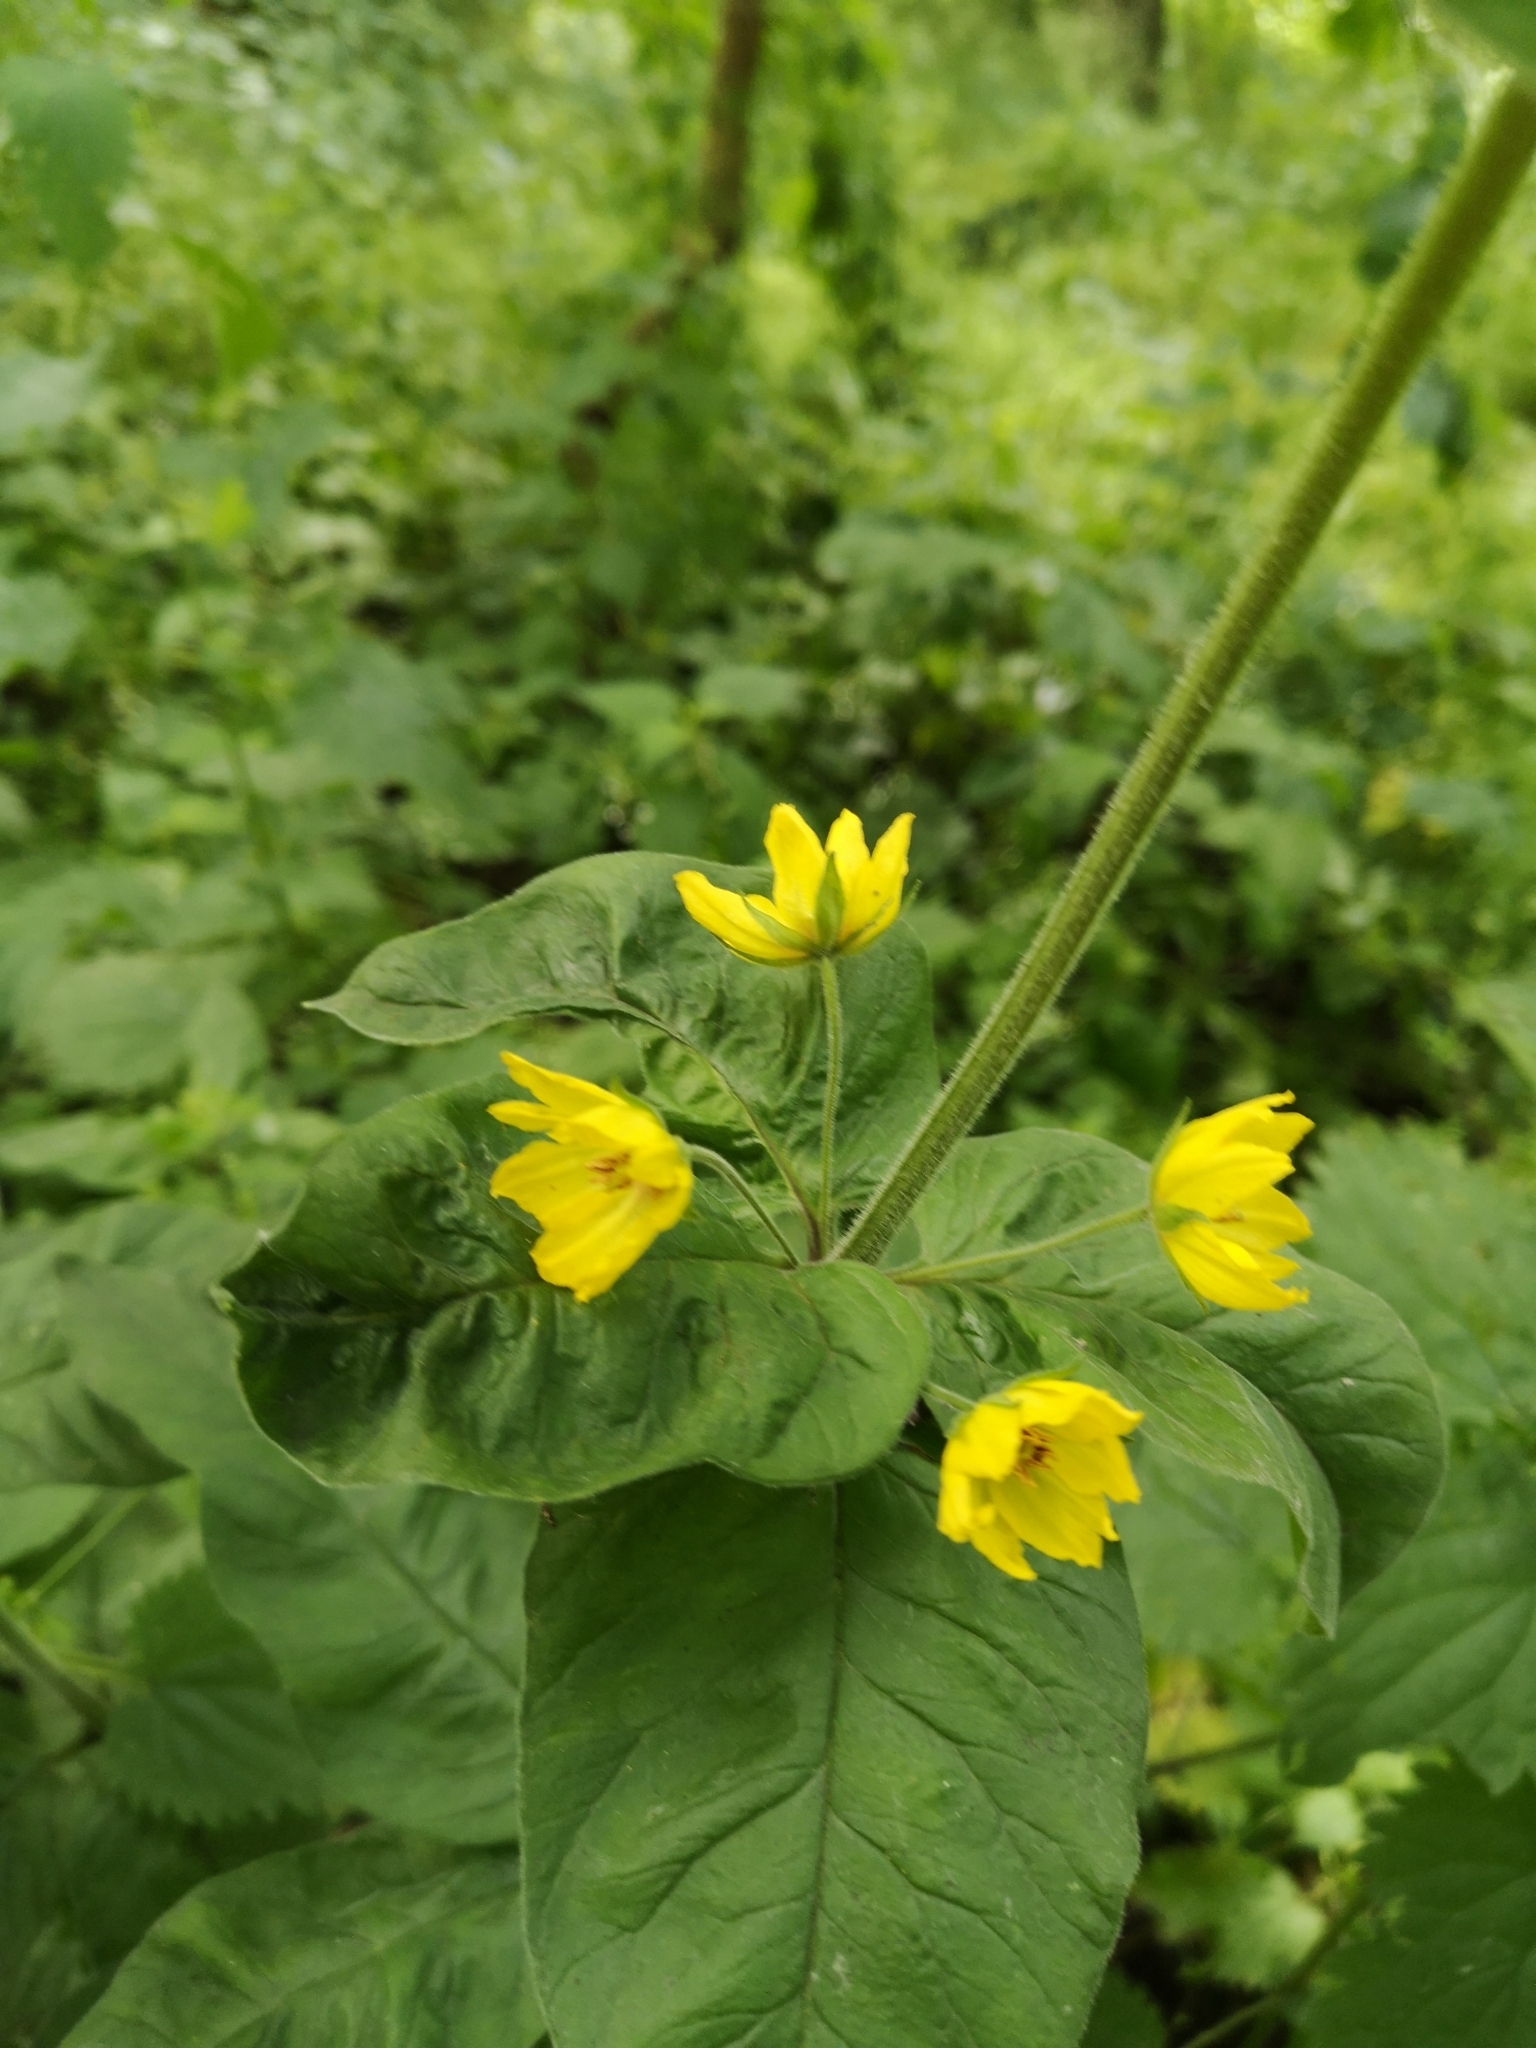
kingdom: Plantae
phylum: Tracheophyta
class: Magnoliopsida
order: Ericales
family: Primulaceae
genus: Lysimachia
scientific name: Lysimachia punctata
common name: Dotted loosestrife
